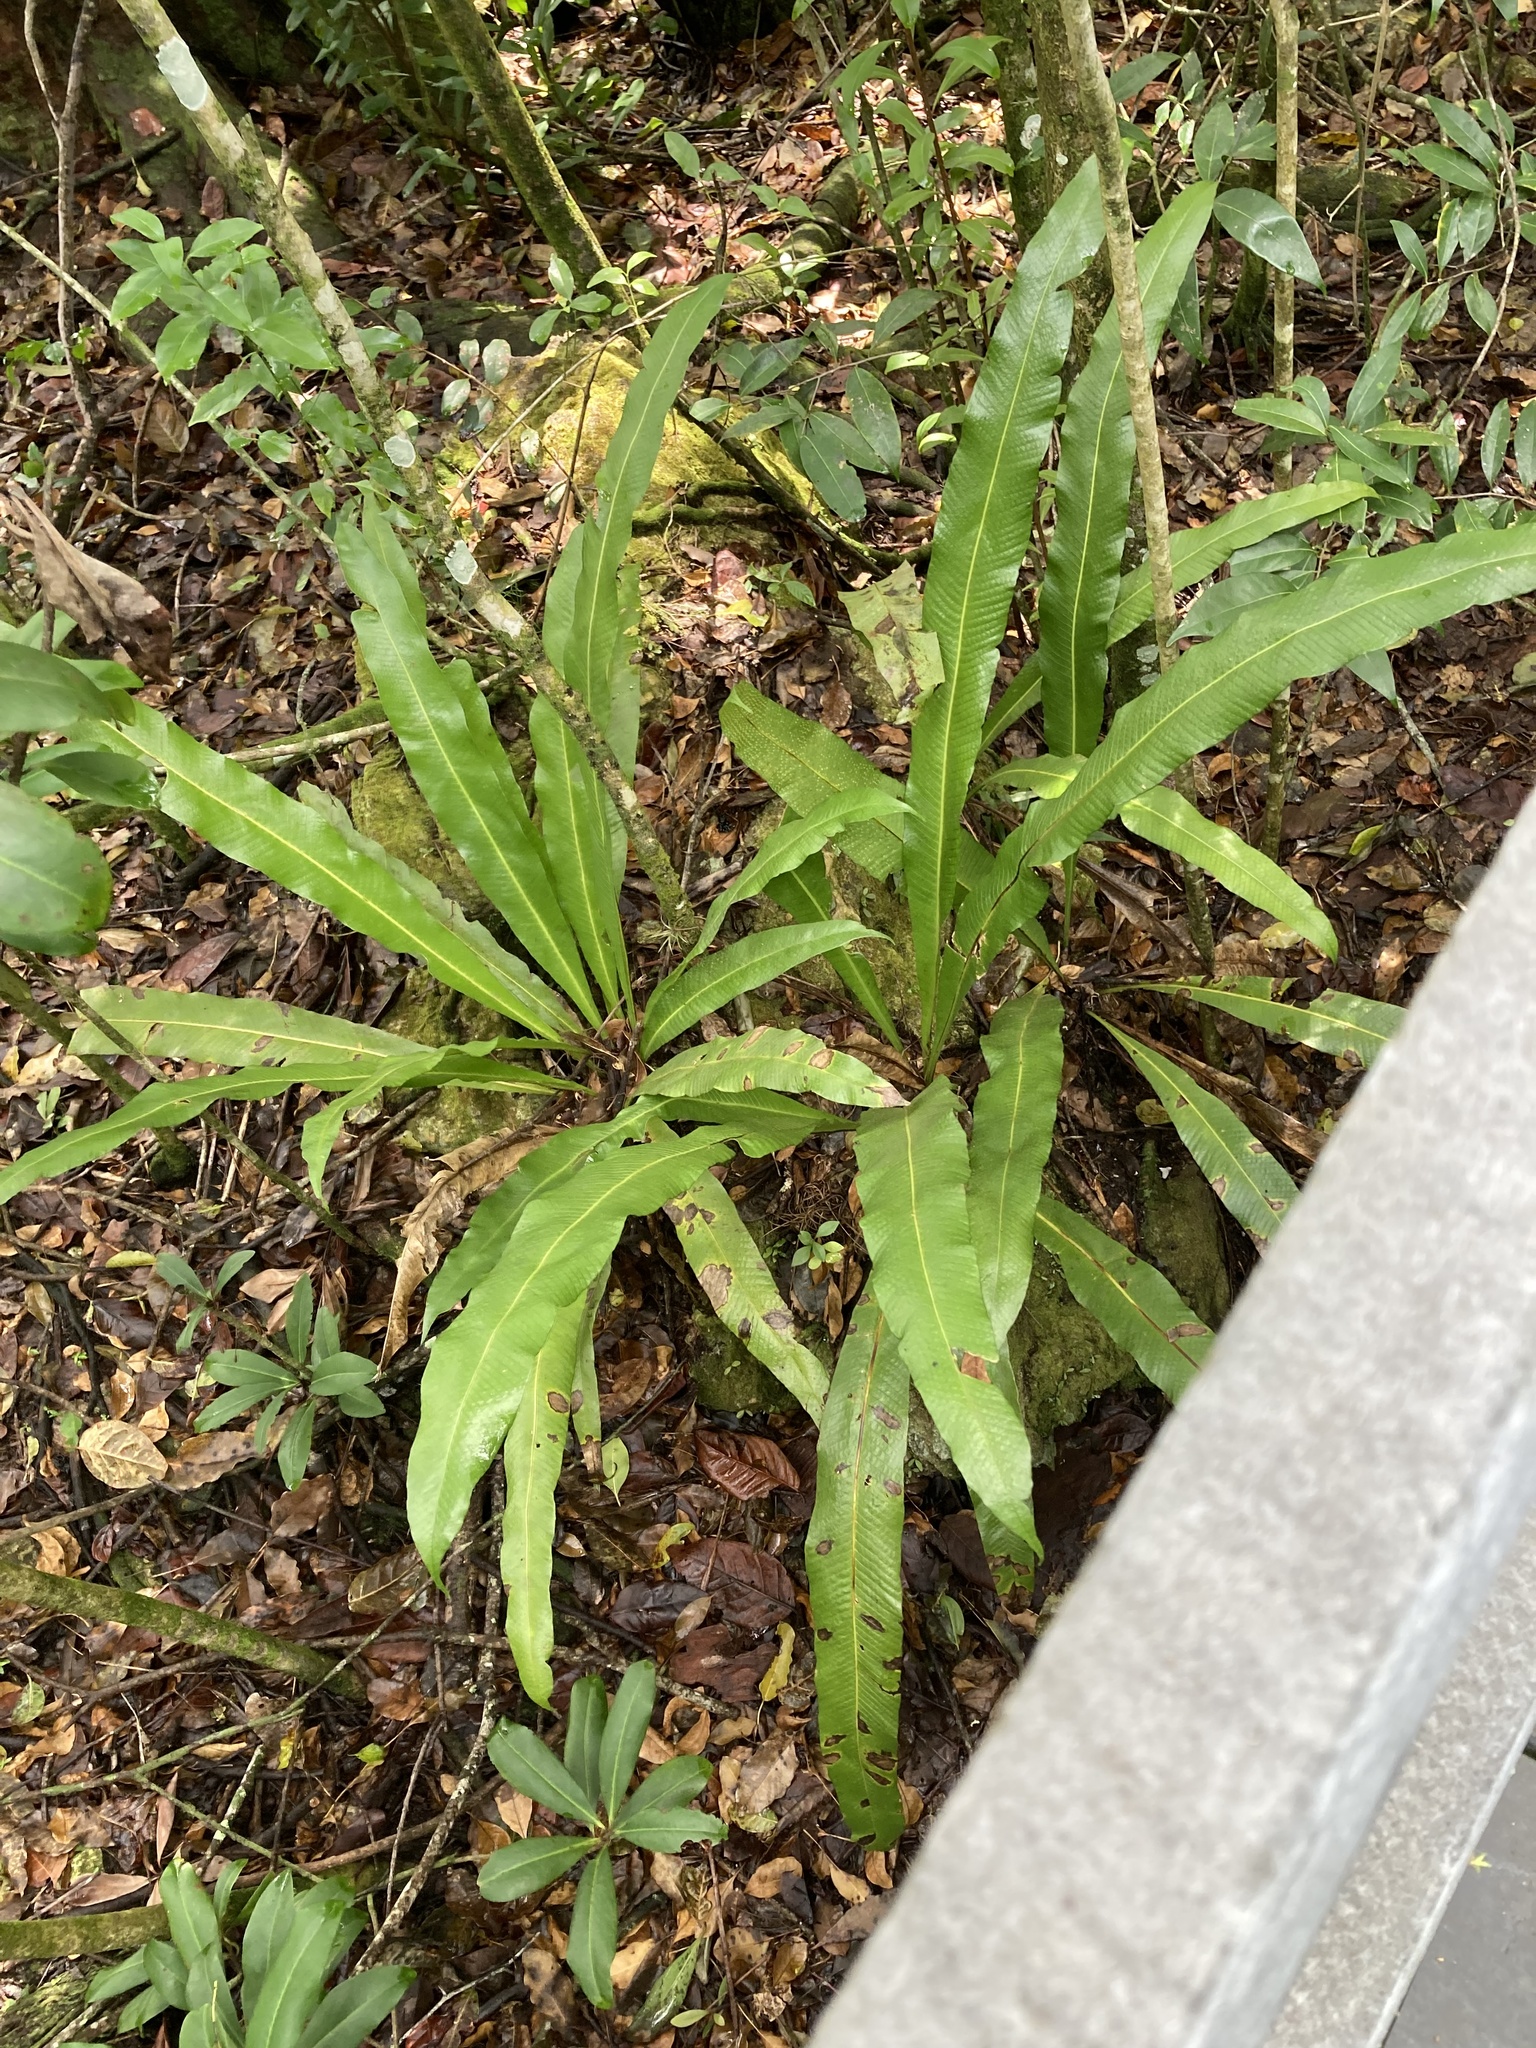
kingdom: Plantae
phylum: Tracheophyta
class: Polypodiopsida
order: Polypodiales
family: Polypodiaceae
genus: Campyloneurum
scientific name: Campyloneurum phyllitidis
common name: Cow-tongue fern
